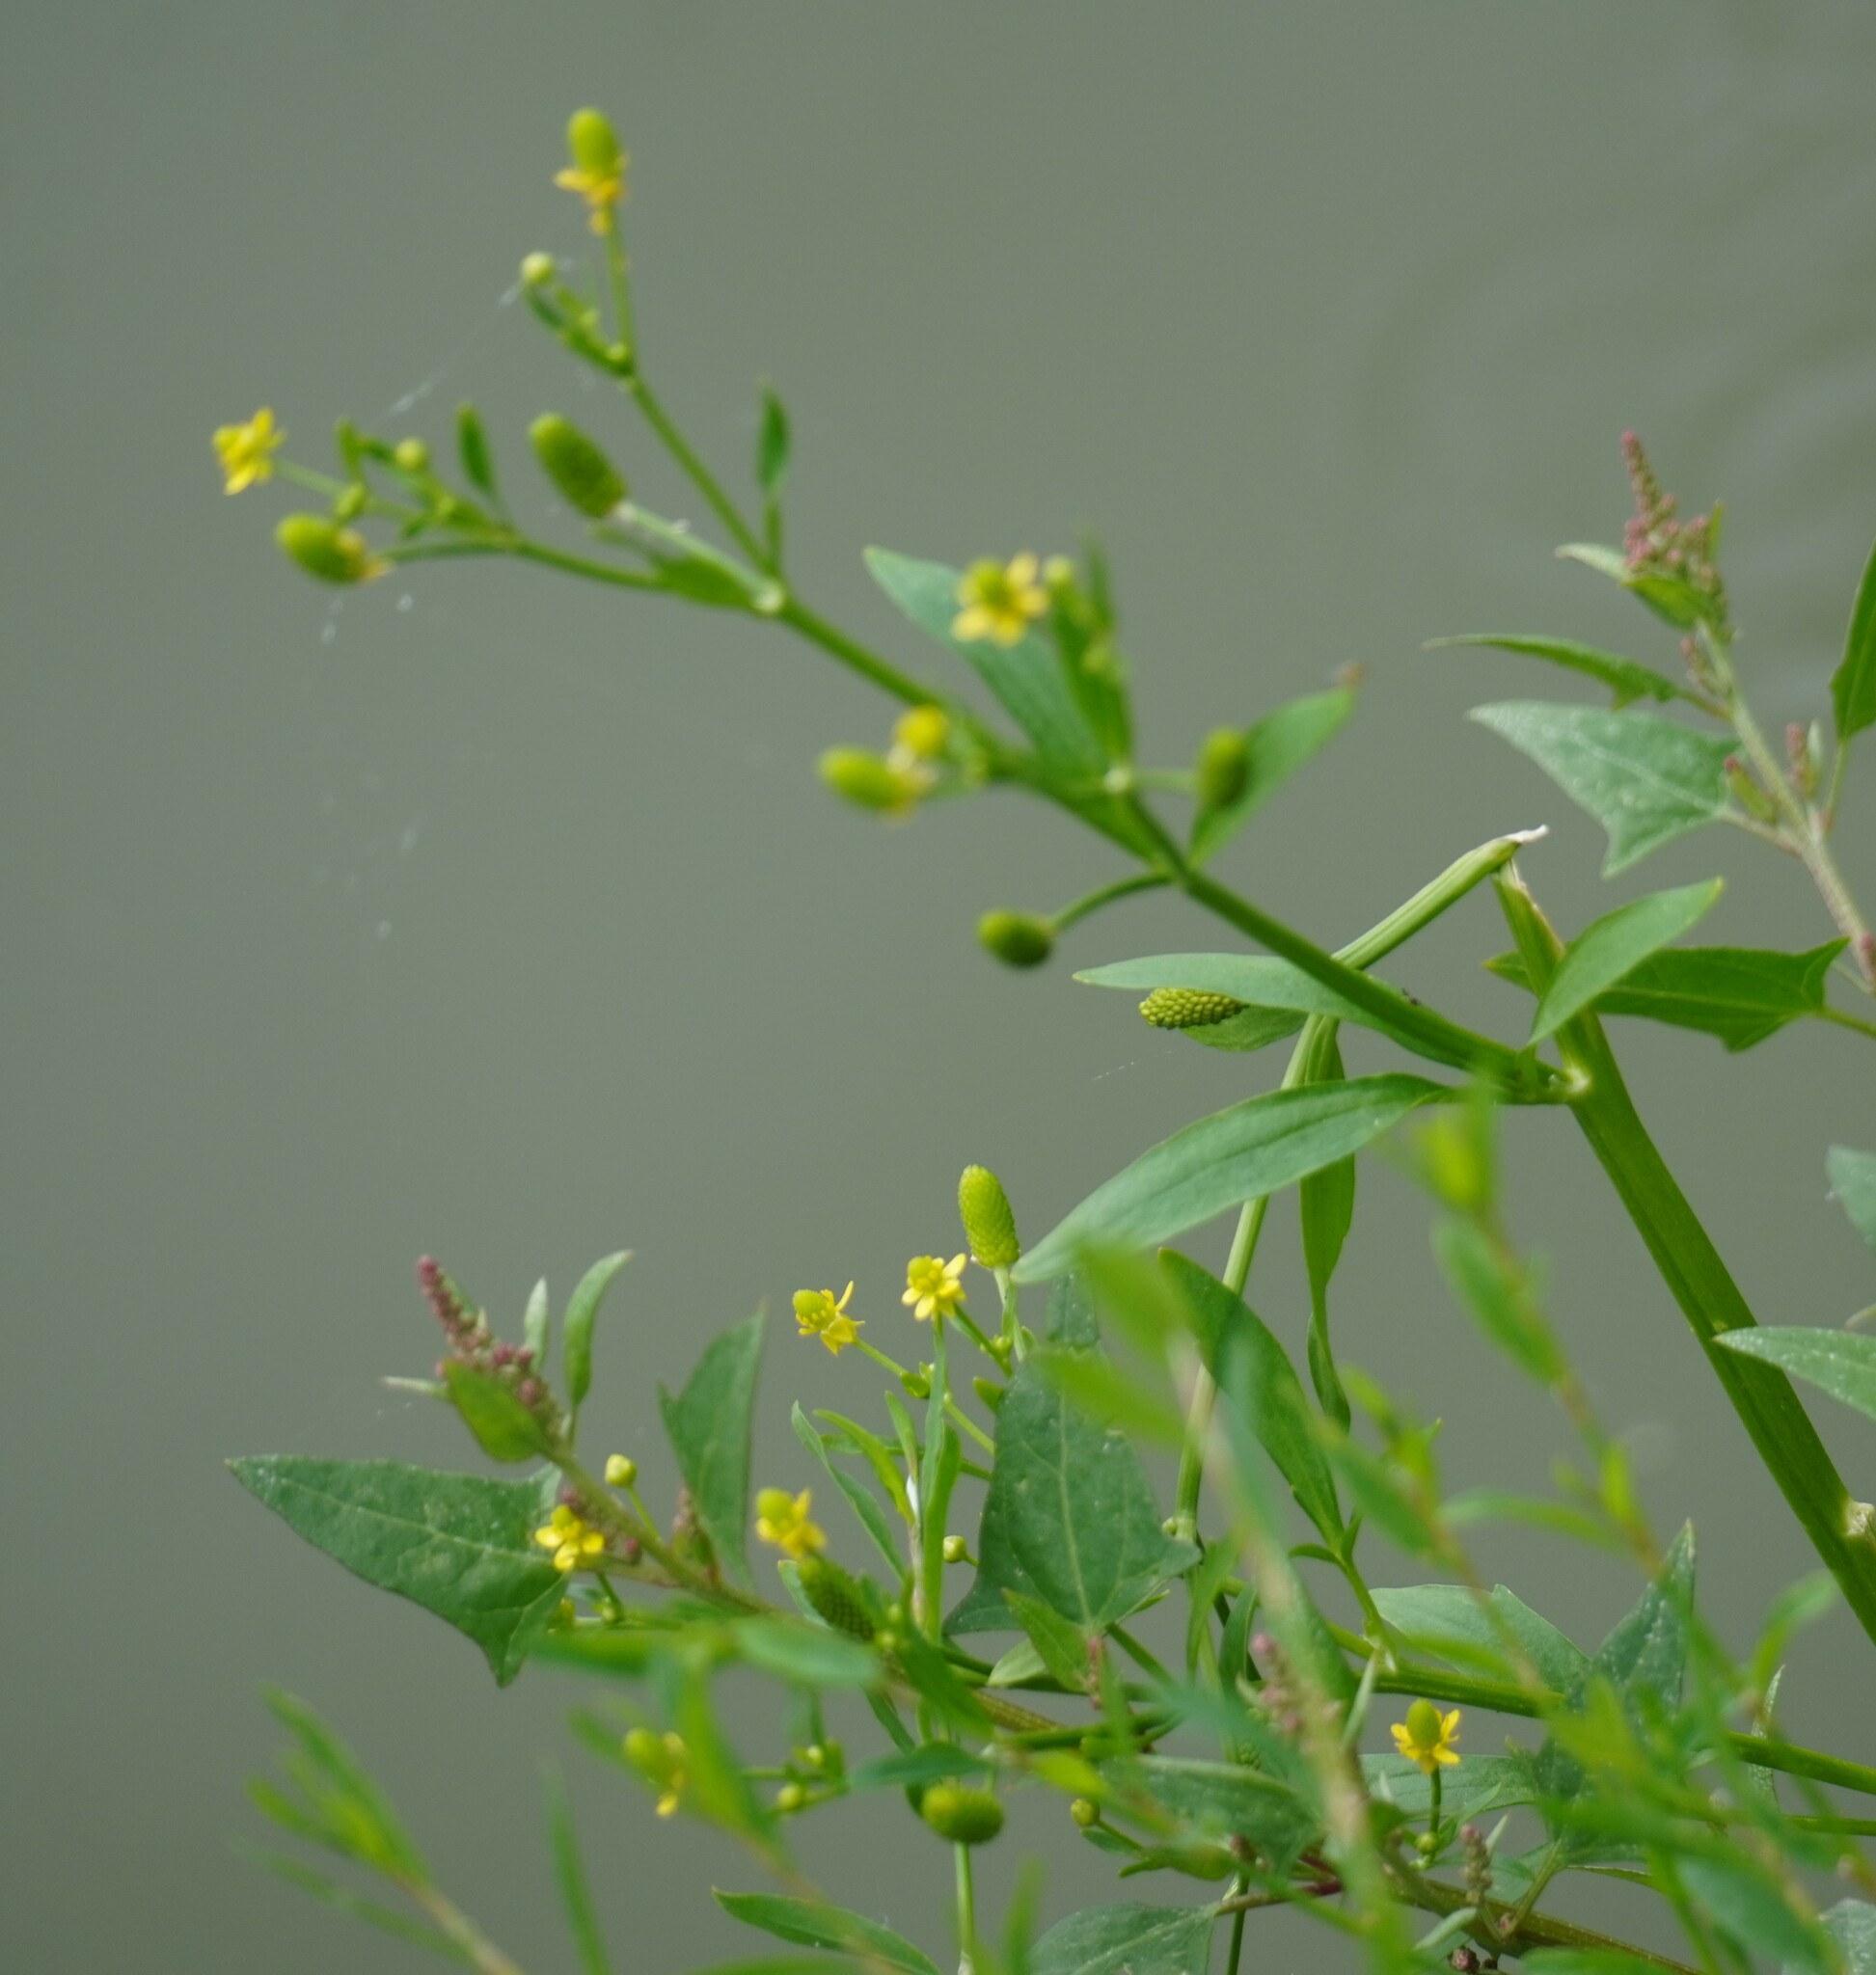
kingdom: Plantae
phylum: Tracheophyta
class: Magnoliopsida
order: Ranunculales
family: Ranunculaceae
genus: Ranunculus
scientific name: Ranunculus sceleratus
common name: Celery-leaved buttercup
